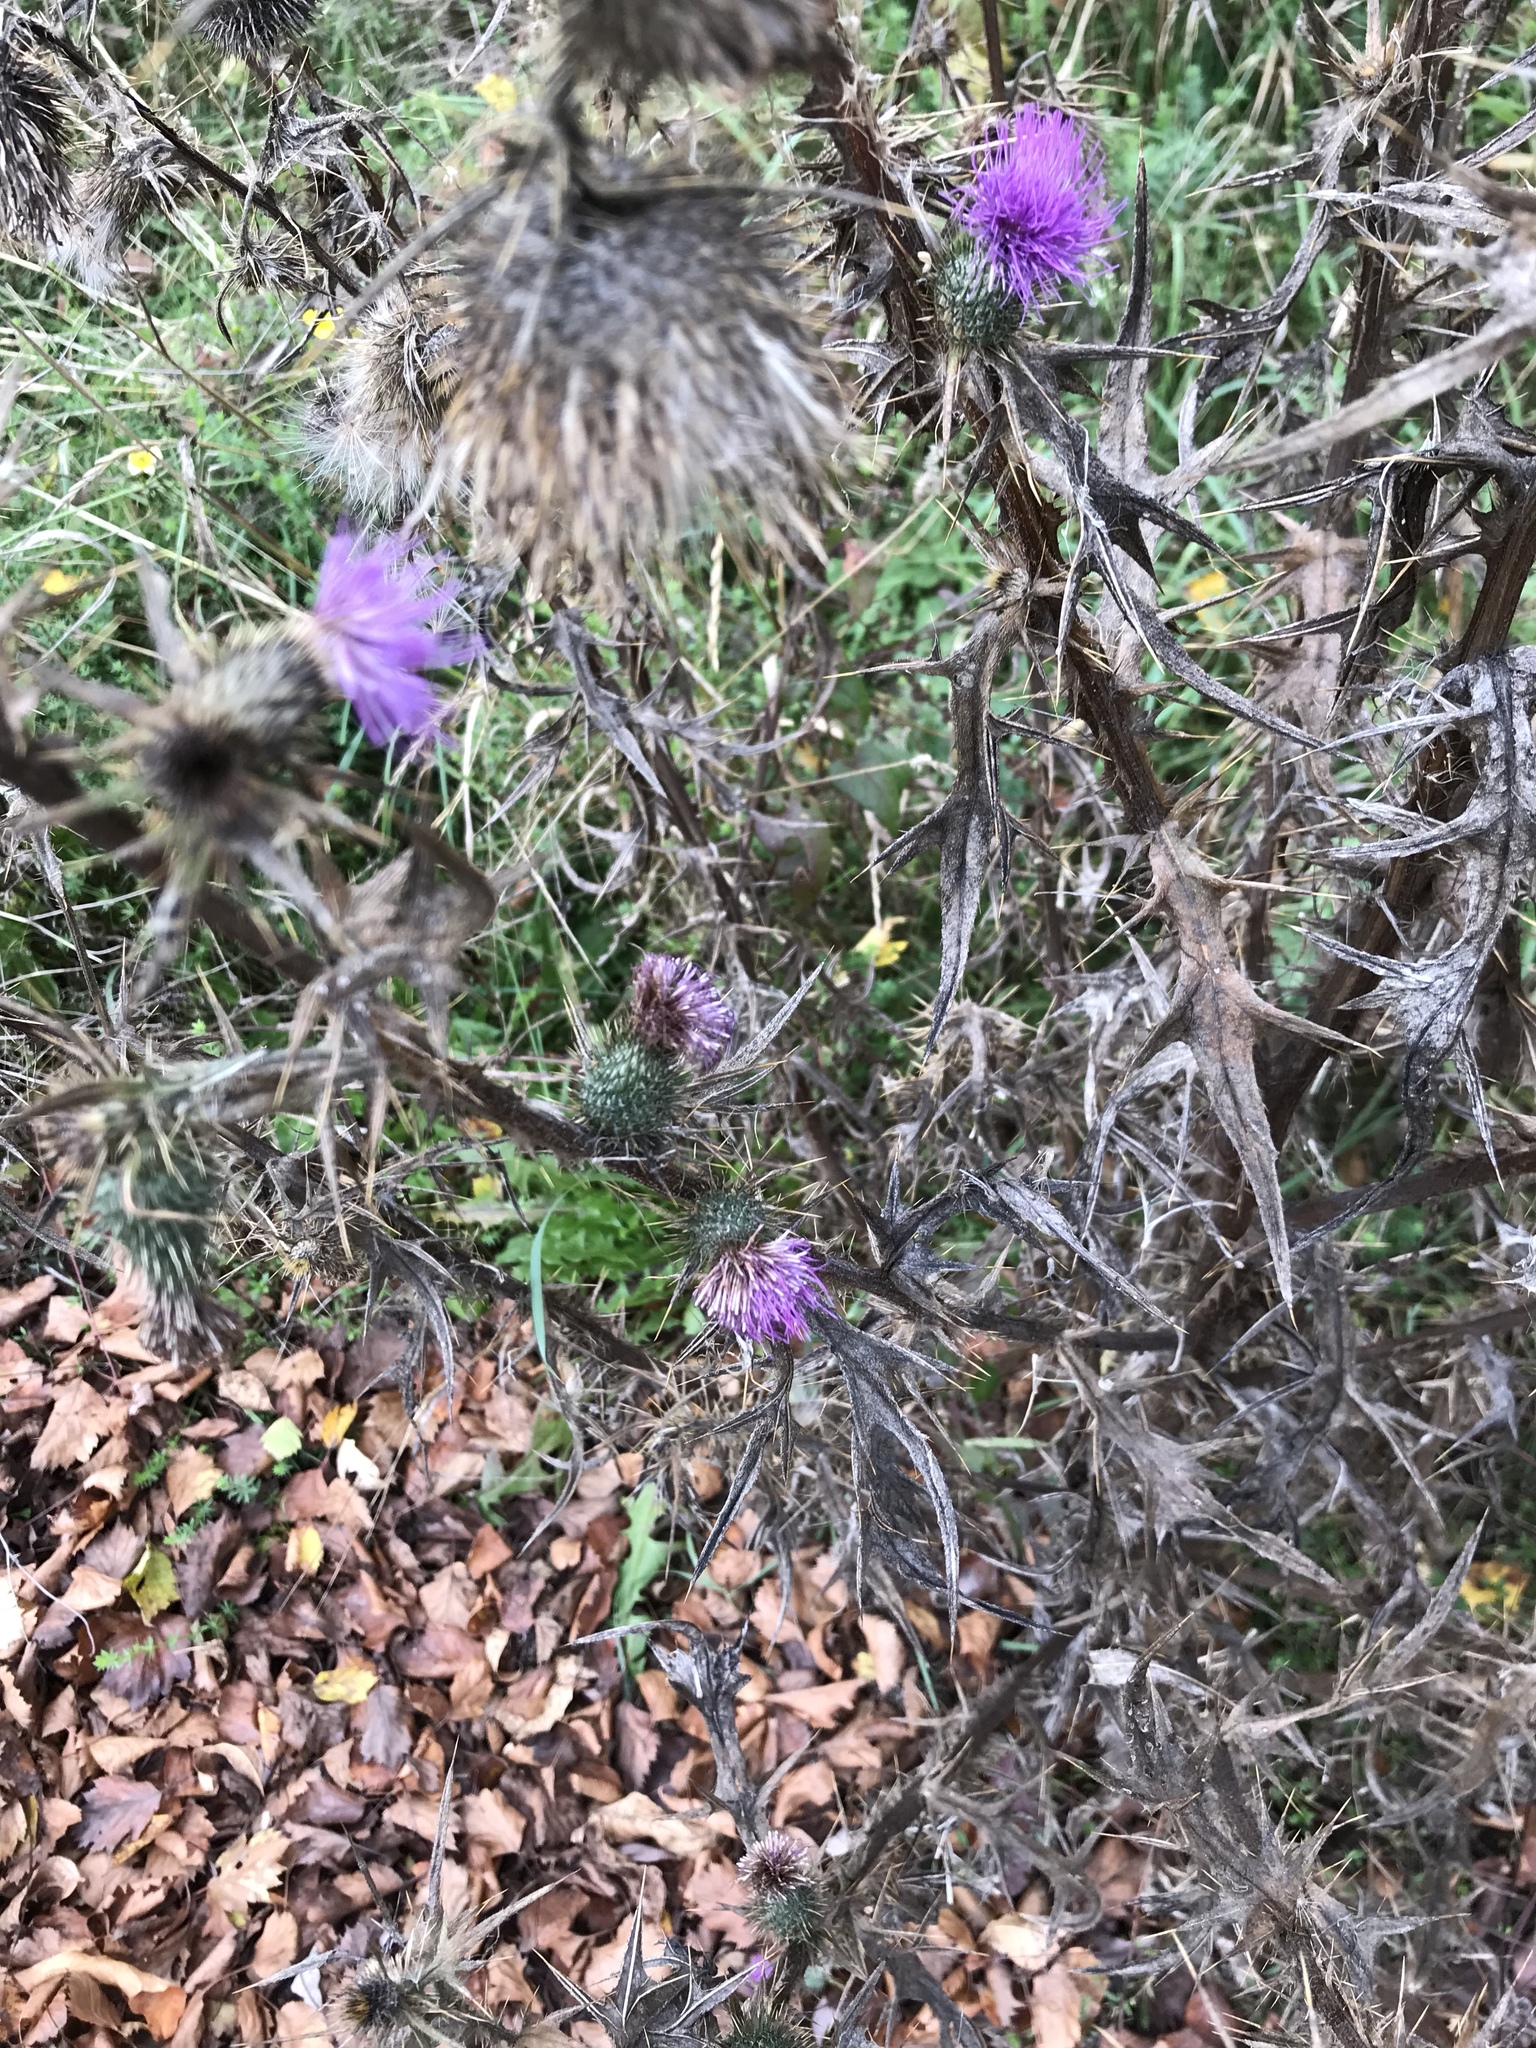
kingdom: Plantae
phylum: Tracheophyta
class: Magnoliopsida
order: Asterales
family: Asteraceae
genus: Cirsium
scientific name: Cirsium vulgare
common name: Bull thistle
